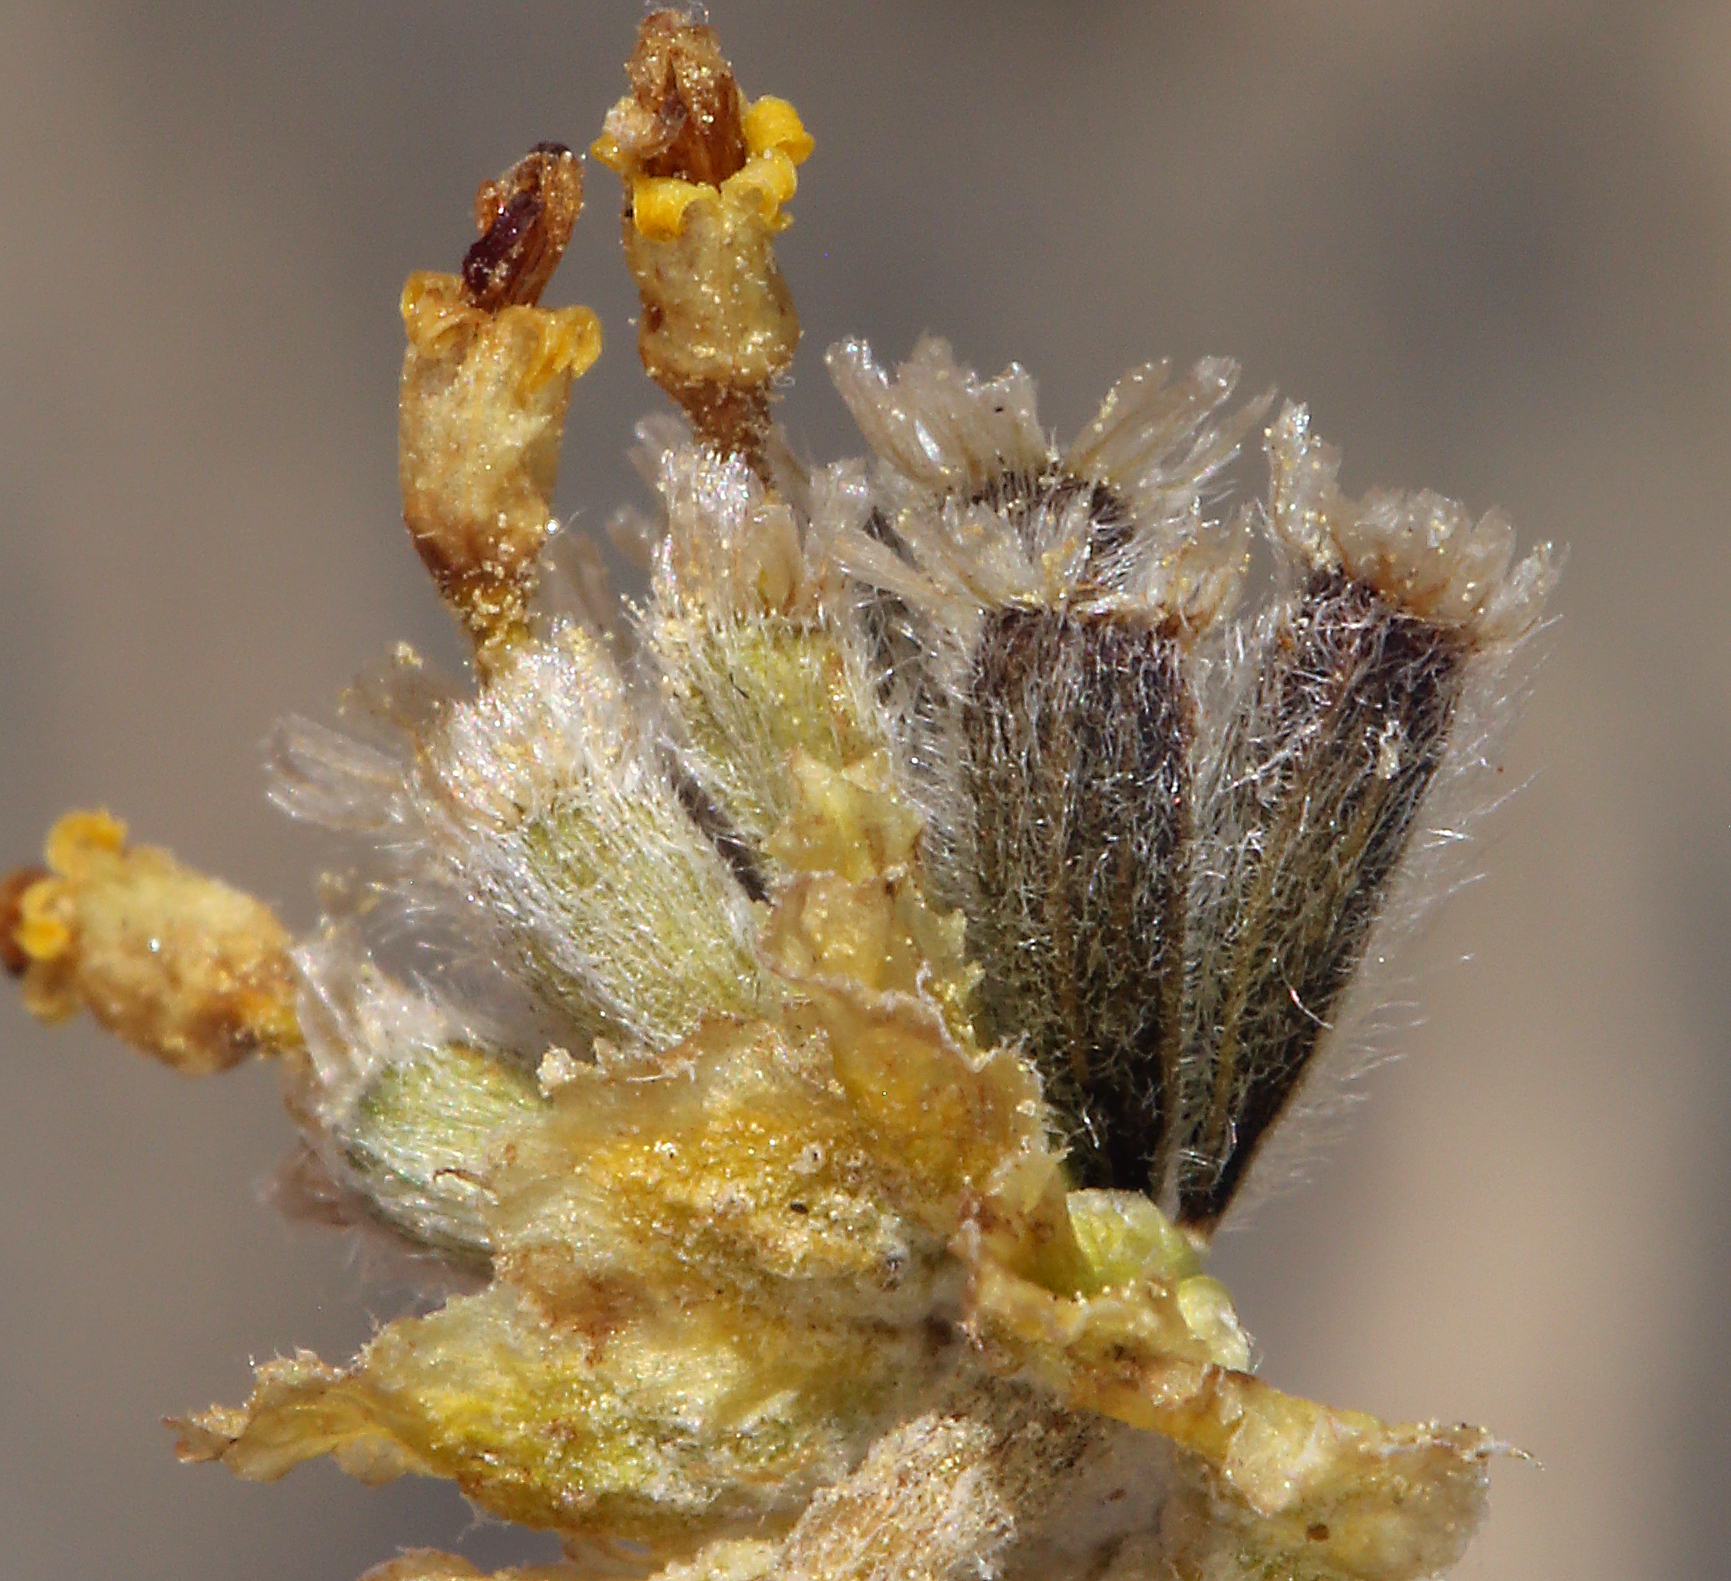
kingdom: Plantae
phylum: Tracheophyta
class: Magnoliopsida
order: Asterales
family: Asteraceae
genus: Hymenopappus
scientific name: Hymenopappus filifolius
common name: Columbia cutleaf
